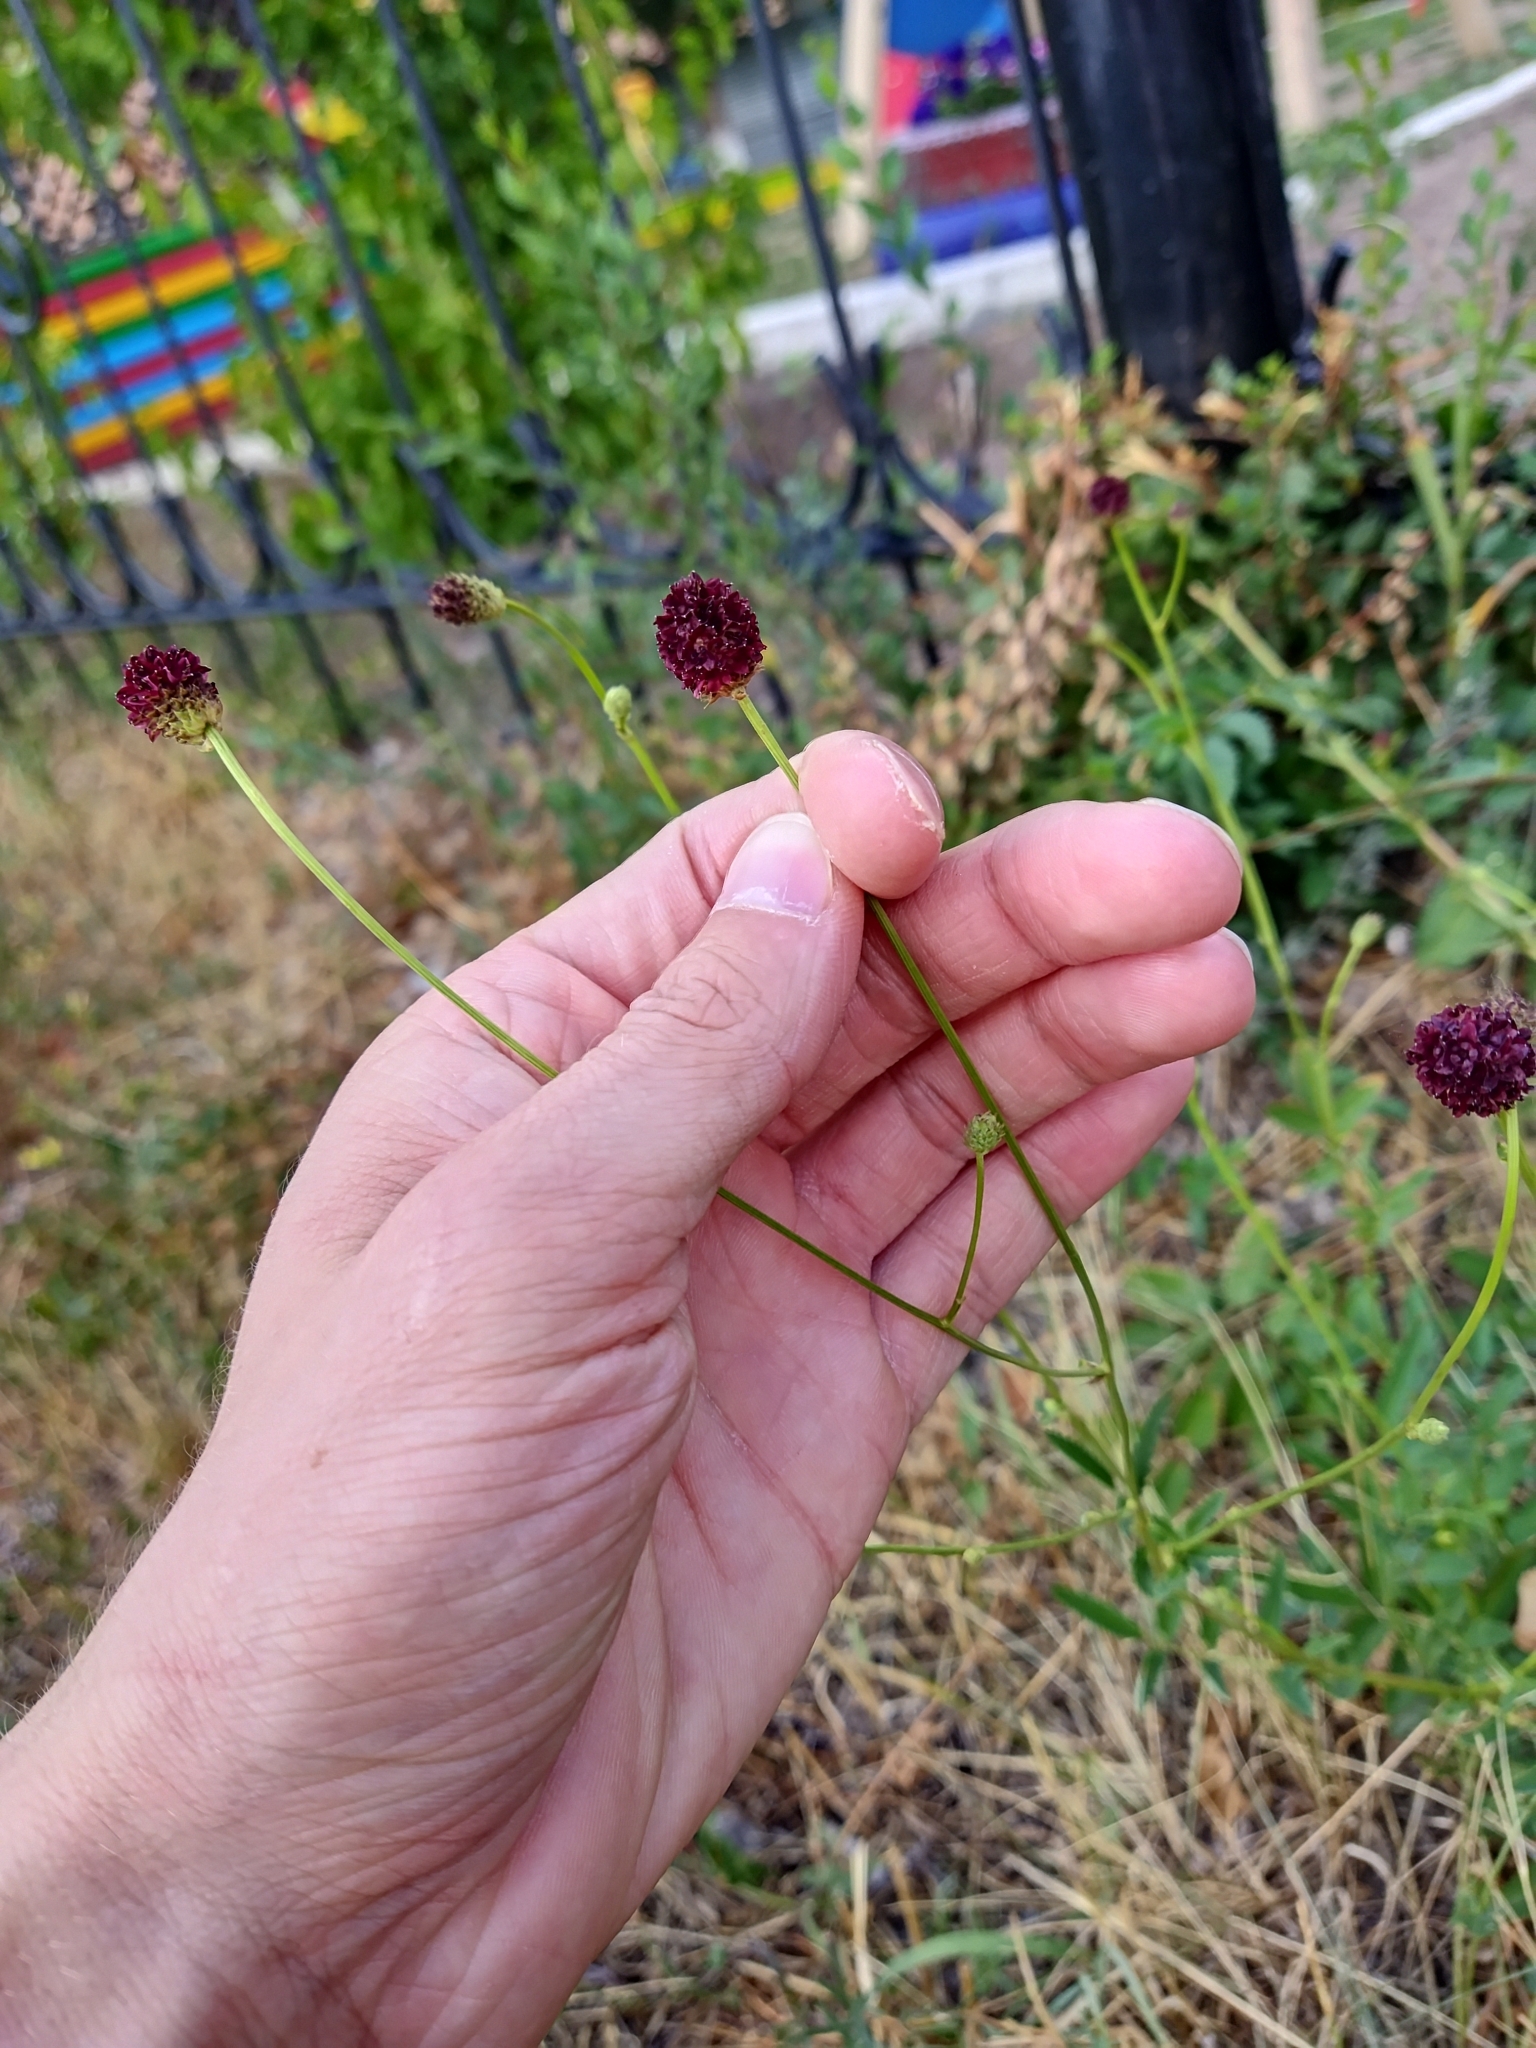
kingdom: Plantae
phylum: Tracheophyta
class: Magnoliopsida
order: Rosales
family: Rosaceae
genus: Sanguisorba
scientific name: Sanguisorba officinalis
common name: Great burnet
